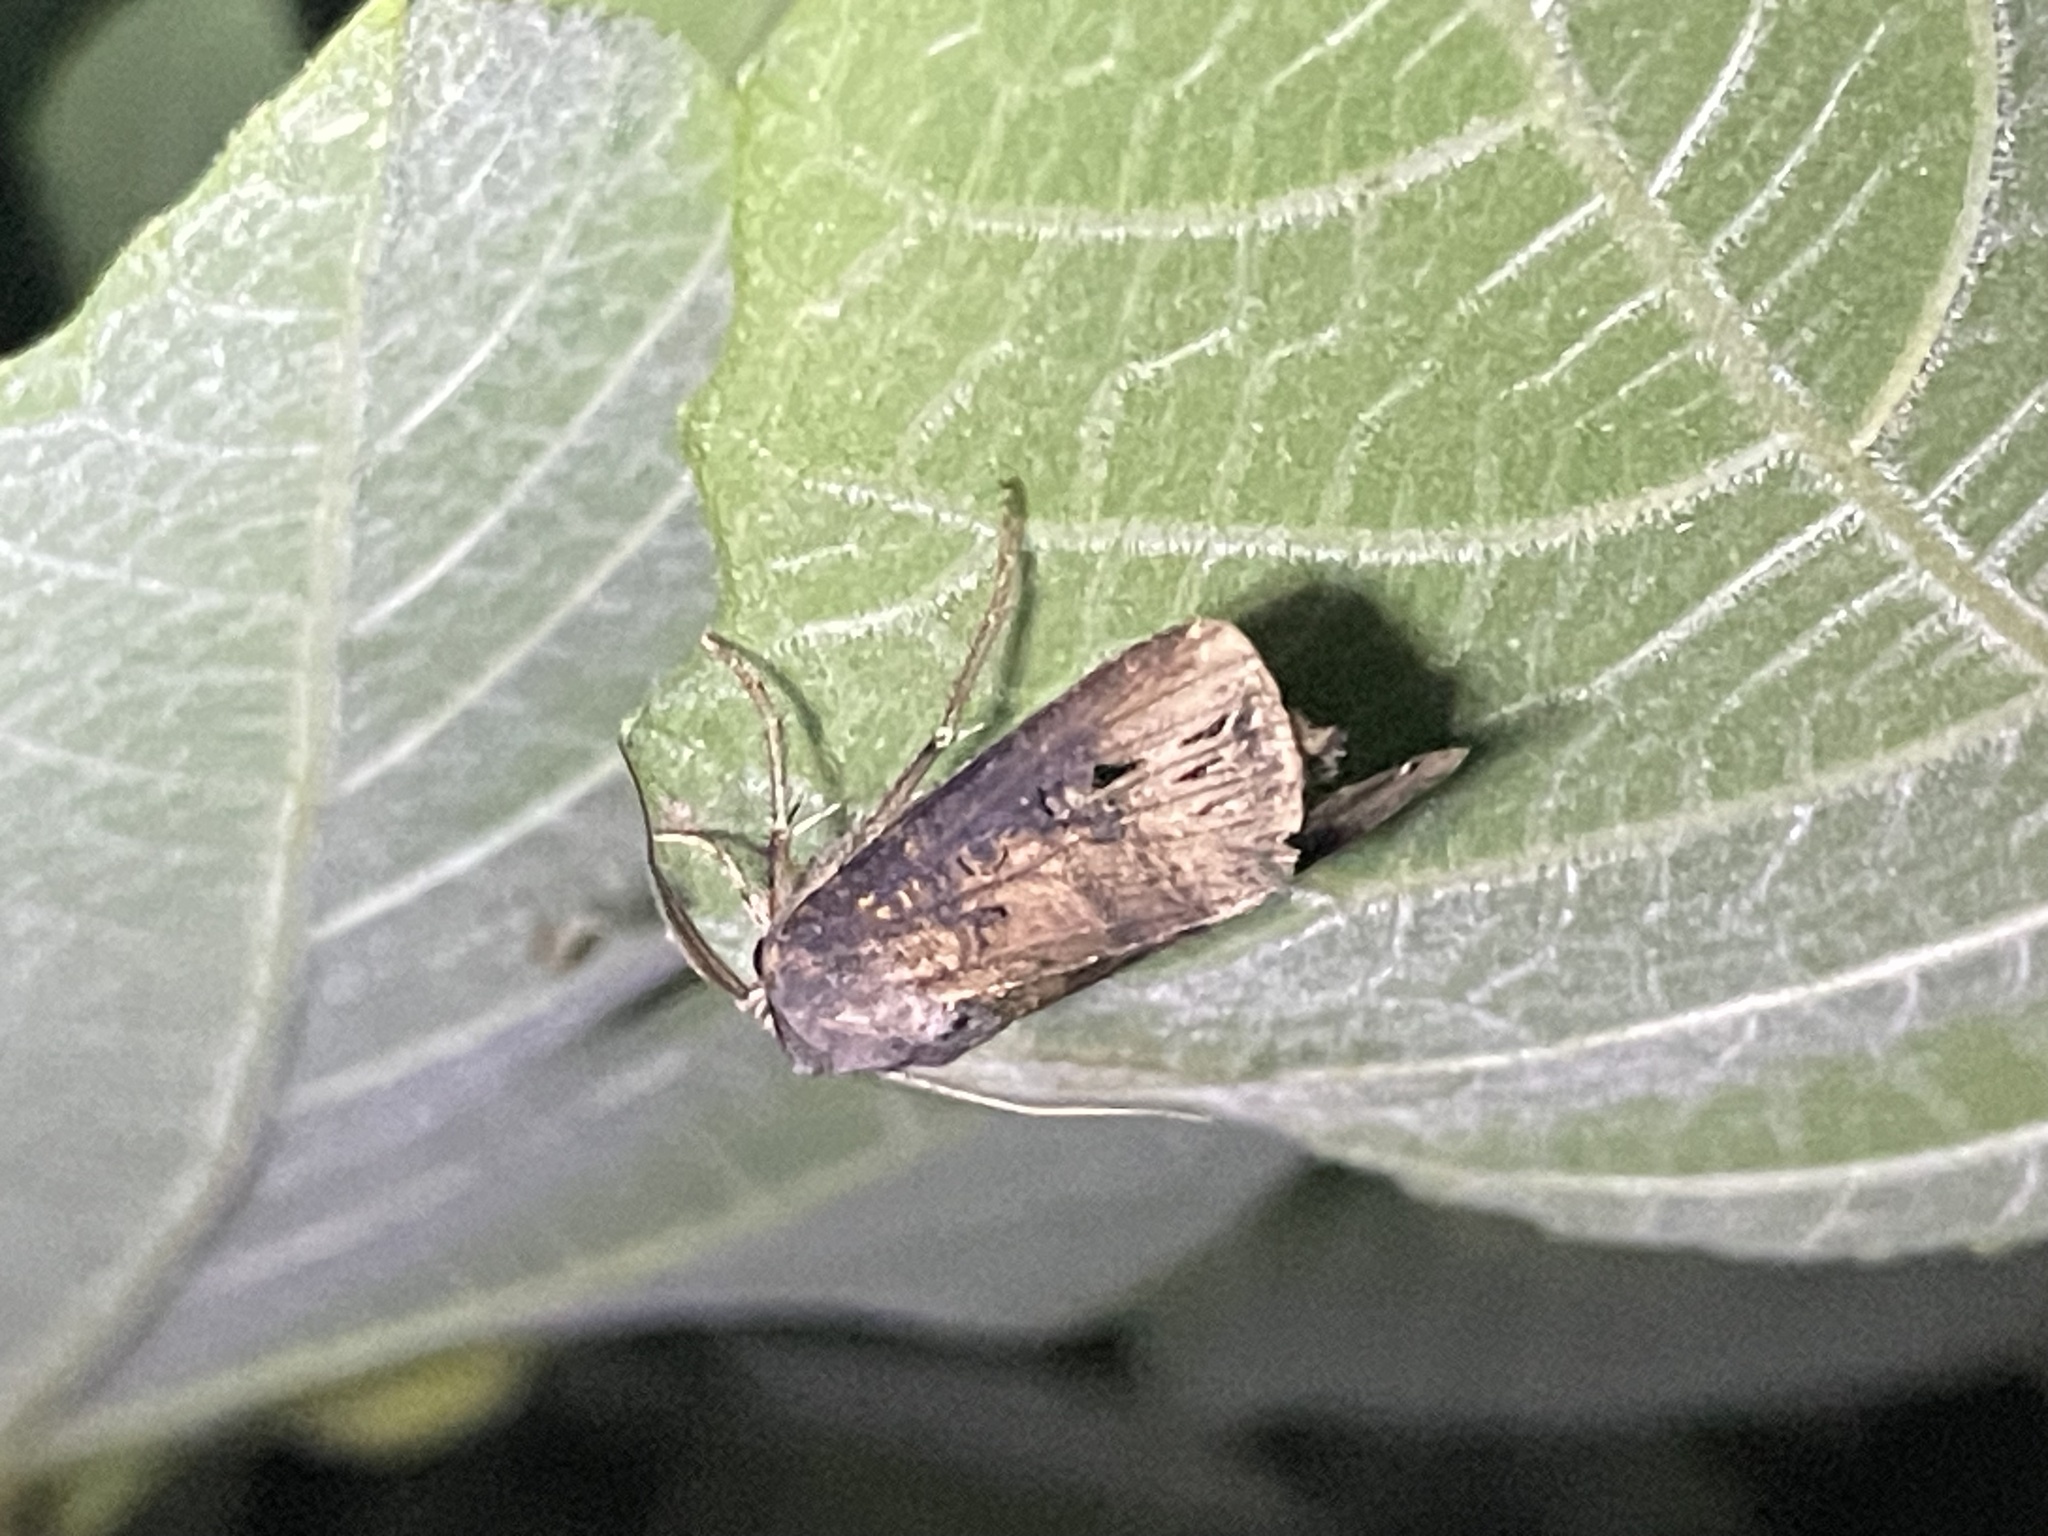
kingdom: Animalia
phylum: Arthropoda
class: Insecta
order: Lepidoptera
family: Noctuidae
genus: Agrotis
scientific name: Agrotis ipsilon
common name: Dark sword-grass
